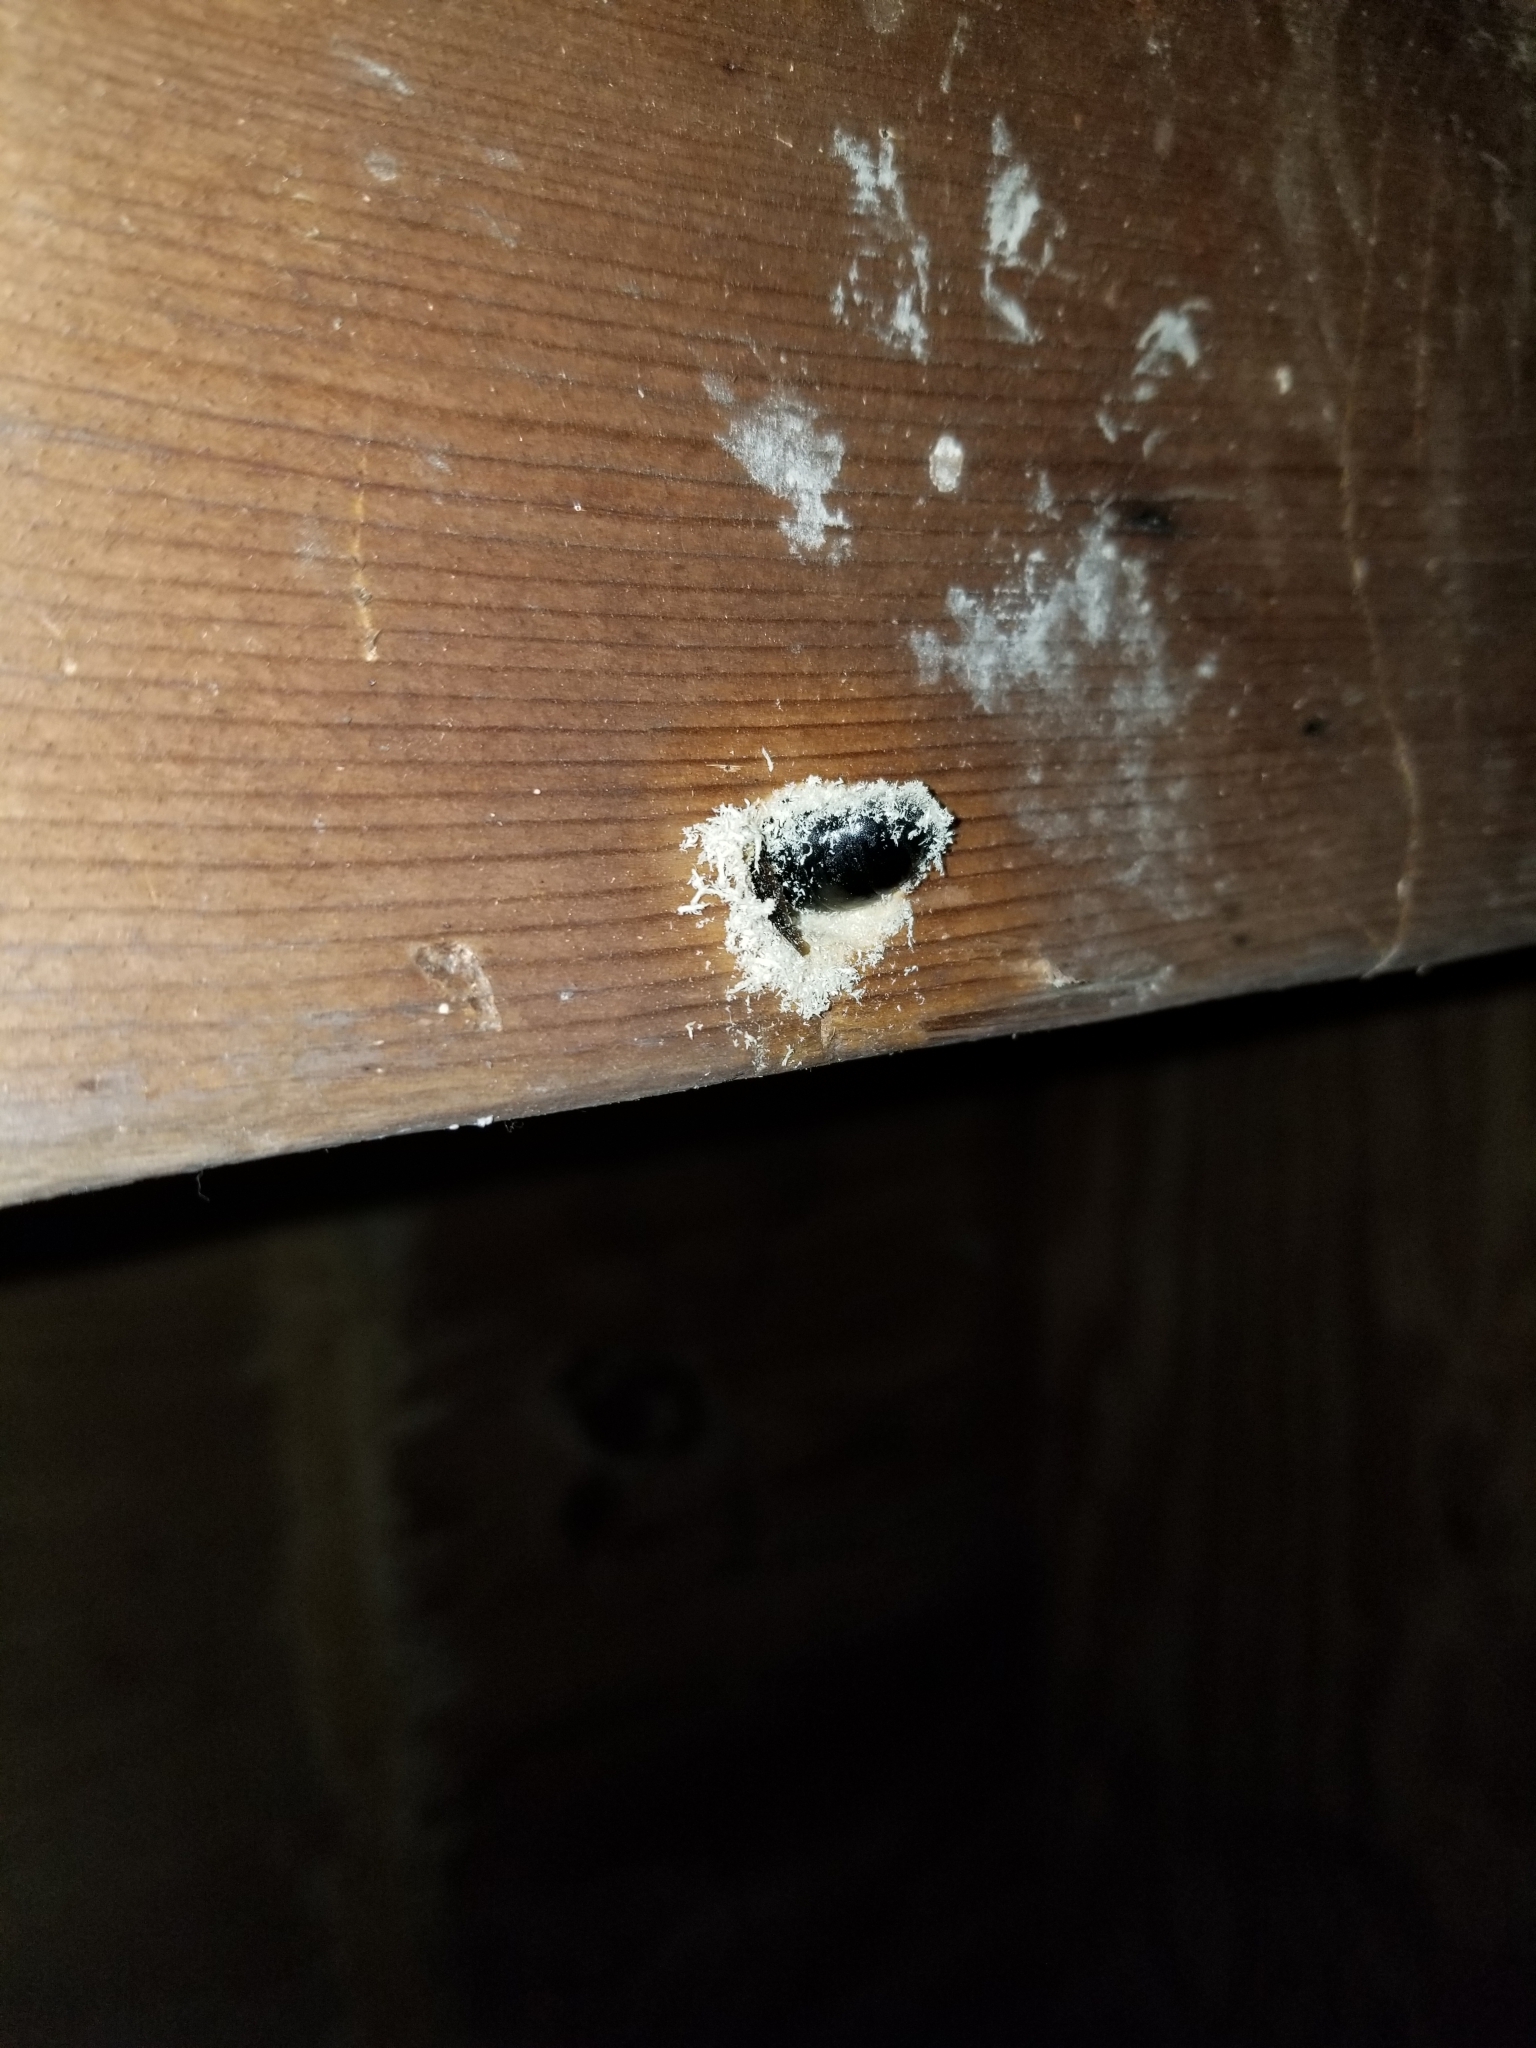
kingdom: Animalia
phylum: Arthropoda
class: Insecta
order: Hymenoptera
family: Apidae
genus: Xylocopa
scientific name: Xylocopa virginica
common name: Carpenter bee
